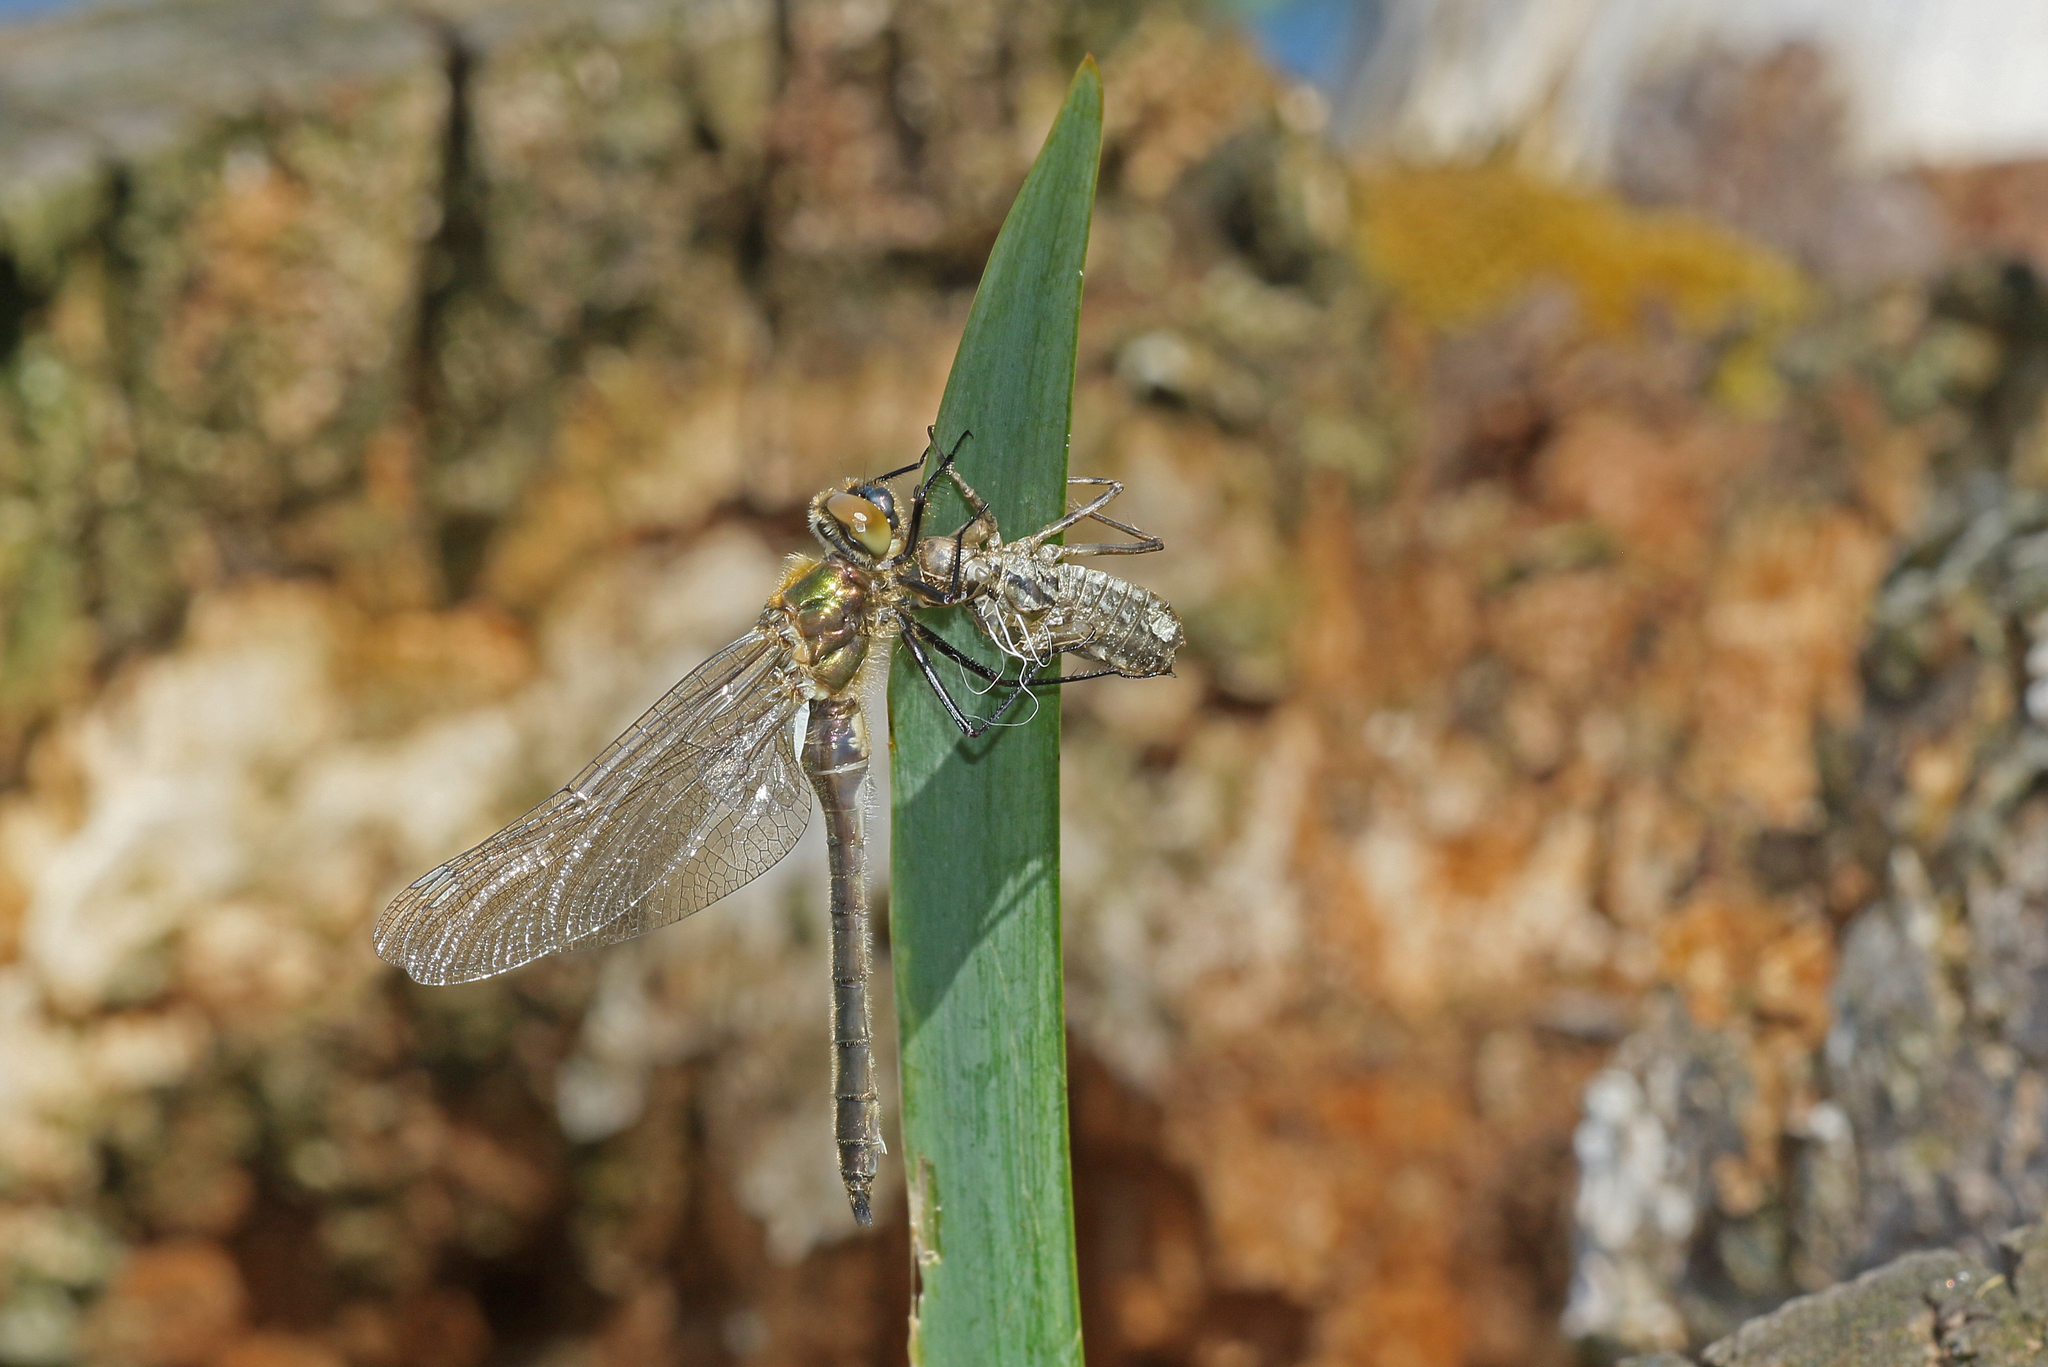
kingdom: Animalia
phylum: Arthropoda
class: Insecta
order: Odonata
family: Corduliidae
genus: Cordulia
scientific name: Cordulia aenea
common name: Downy emerald
